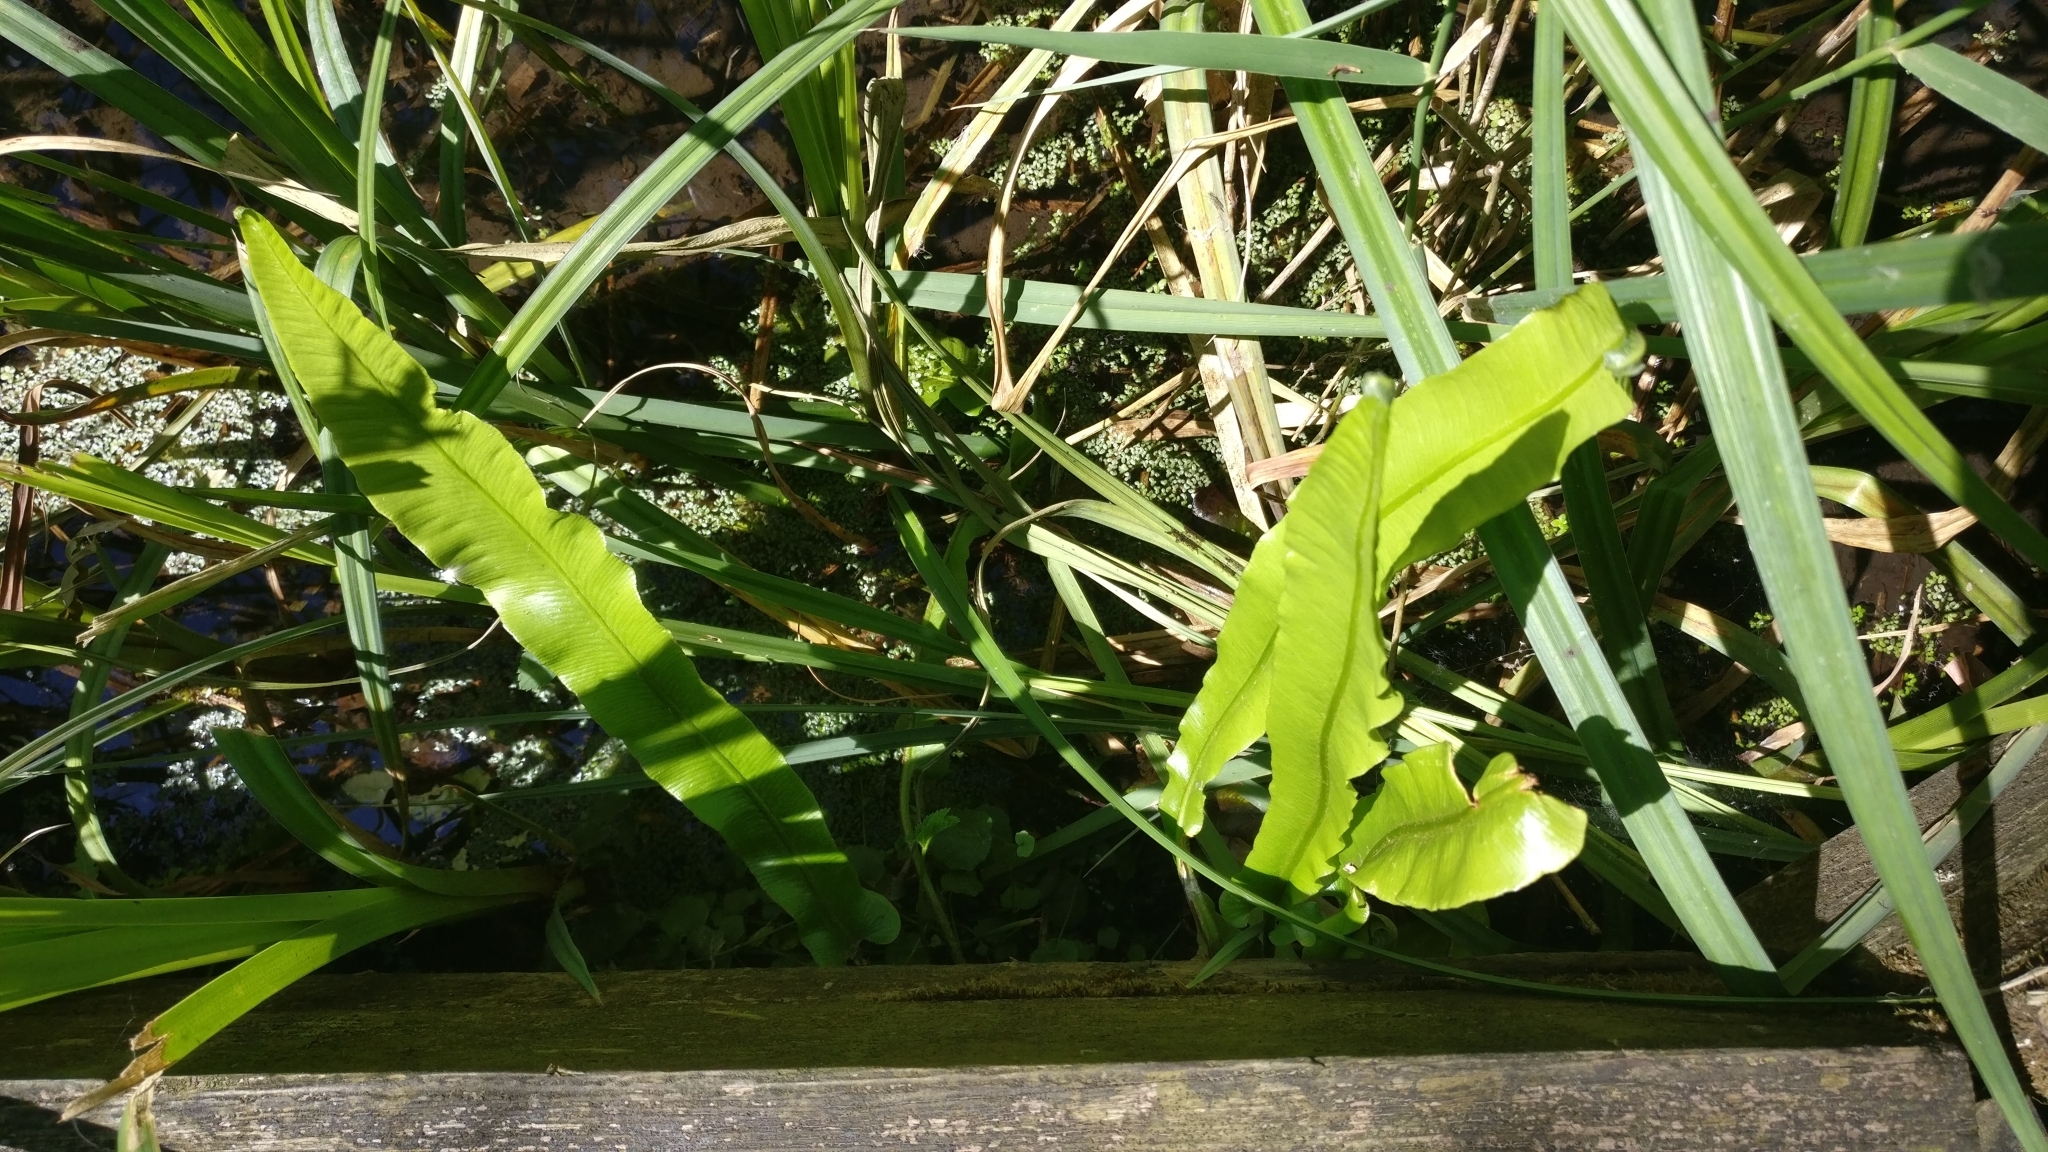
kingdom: Plantae
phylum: Tracheophyta
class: Polypodiopsida
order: Polypodiales
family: Aspleniaceae
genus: Asplenium
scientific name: Asplenium scolopendrium
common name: Hart's-tongue fern
